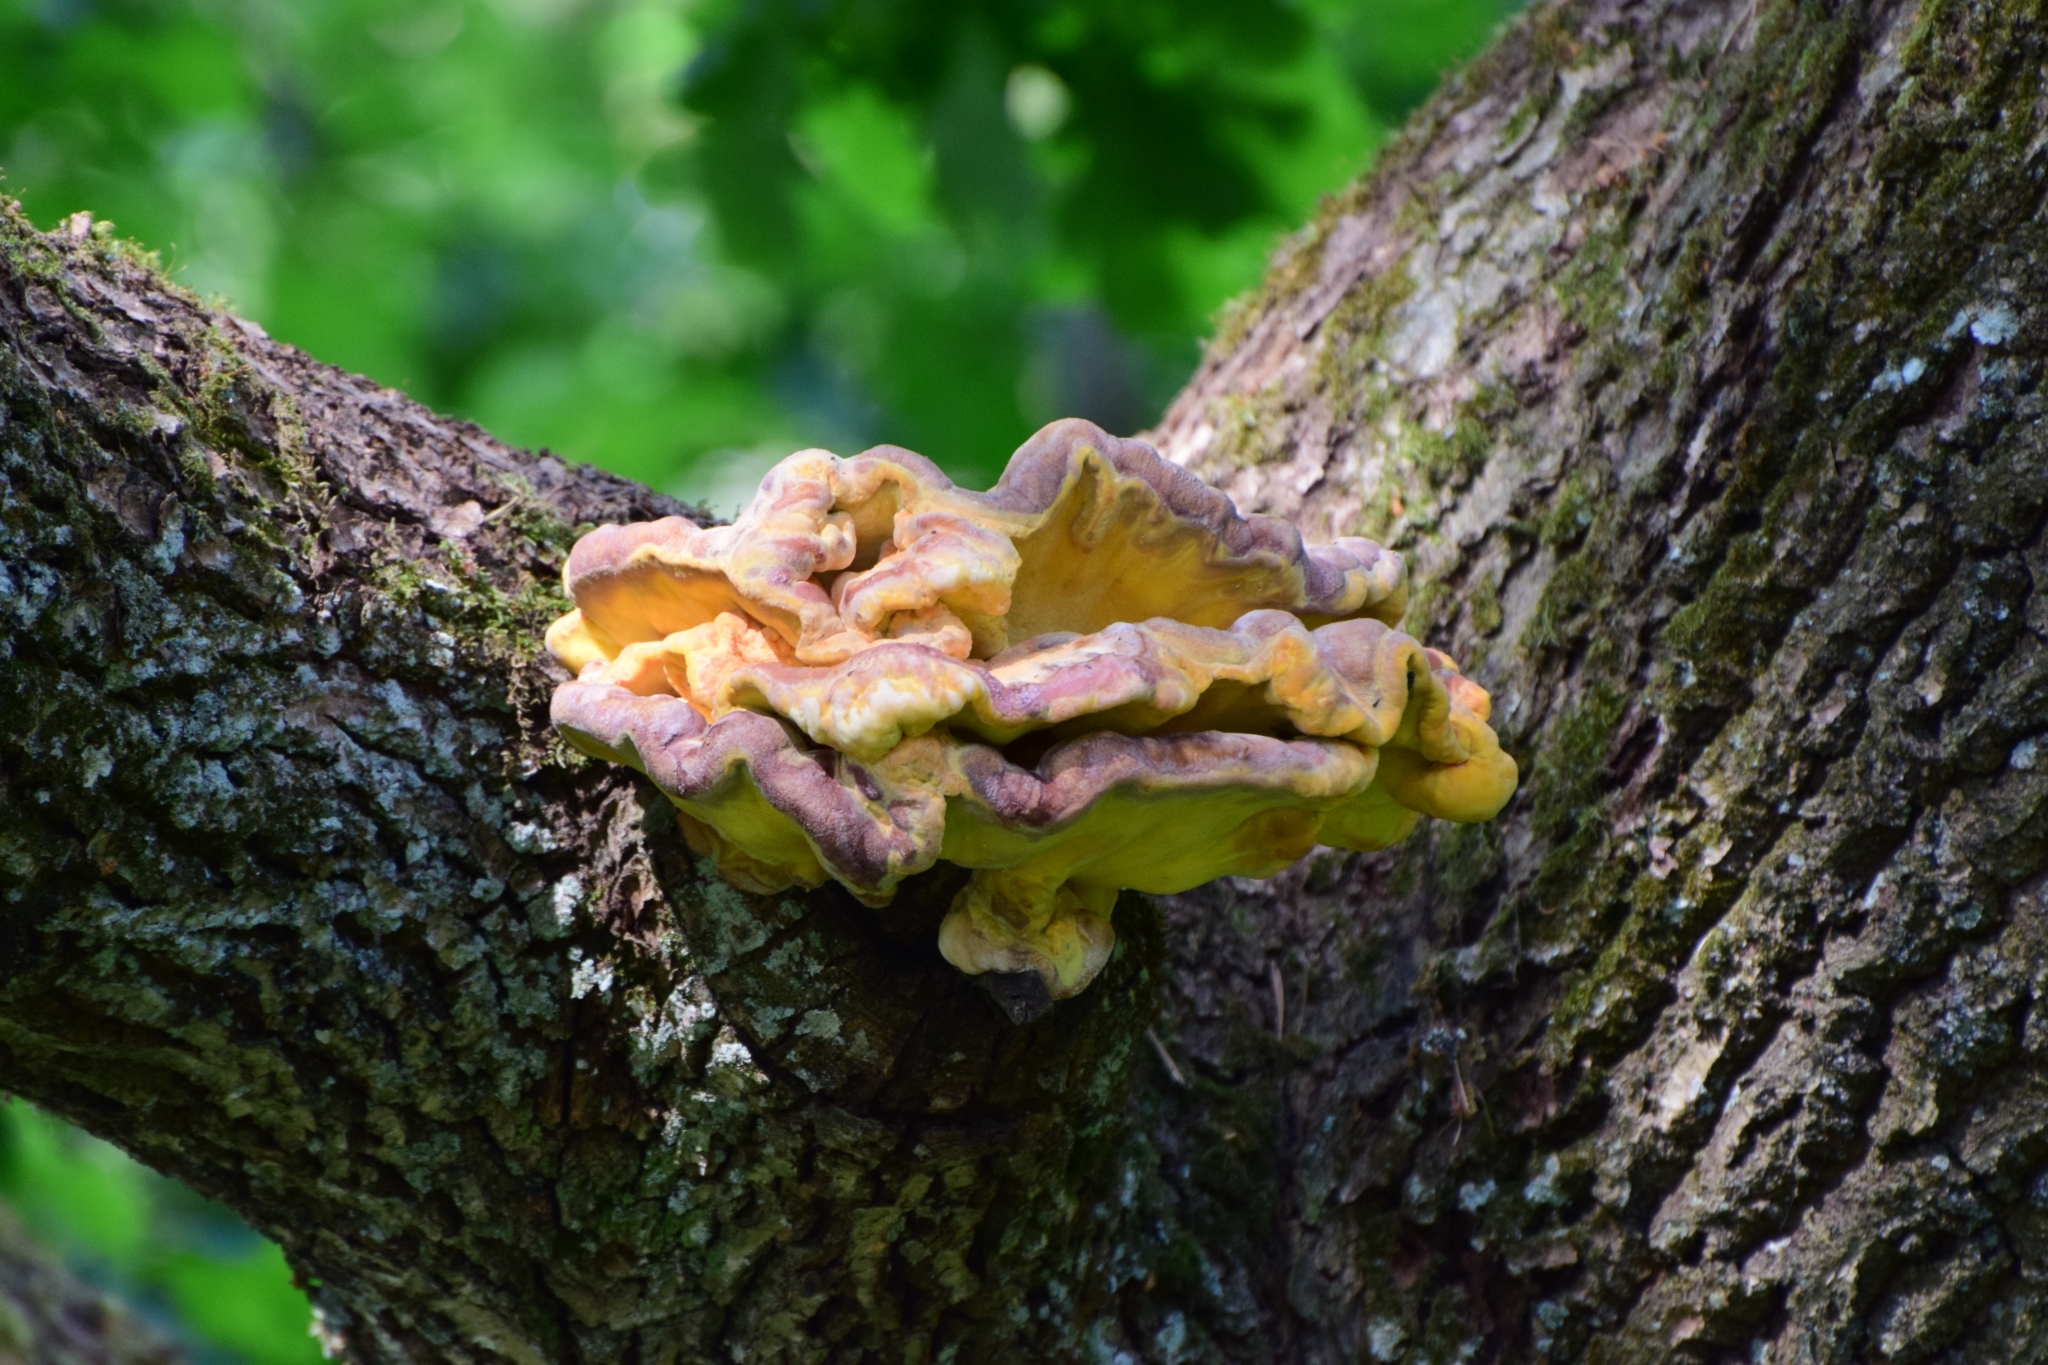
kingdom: Fungi
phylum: Basidiomycota
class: Agaricomycetes
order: Polyporales
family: Laetiporaceae
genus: Laetiporus
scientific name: Laetiporus sulphureus
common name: Chicken of the woods
